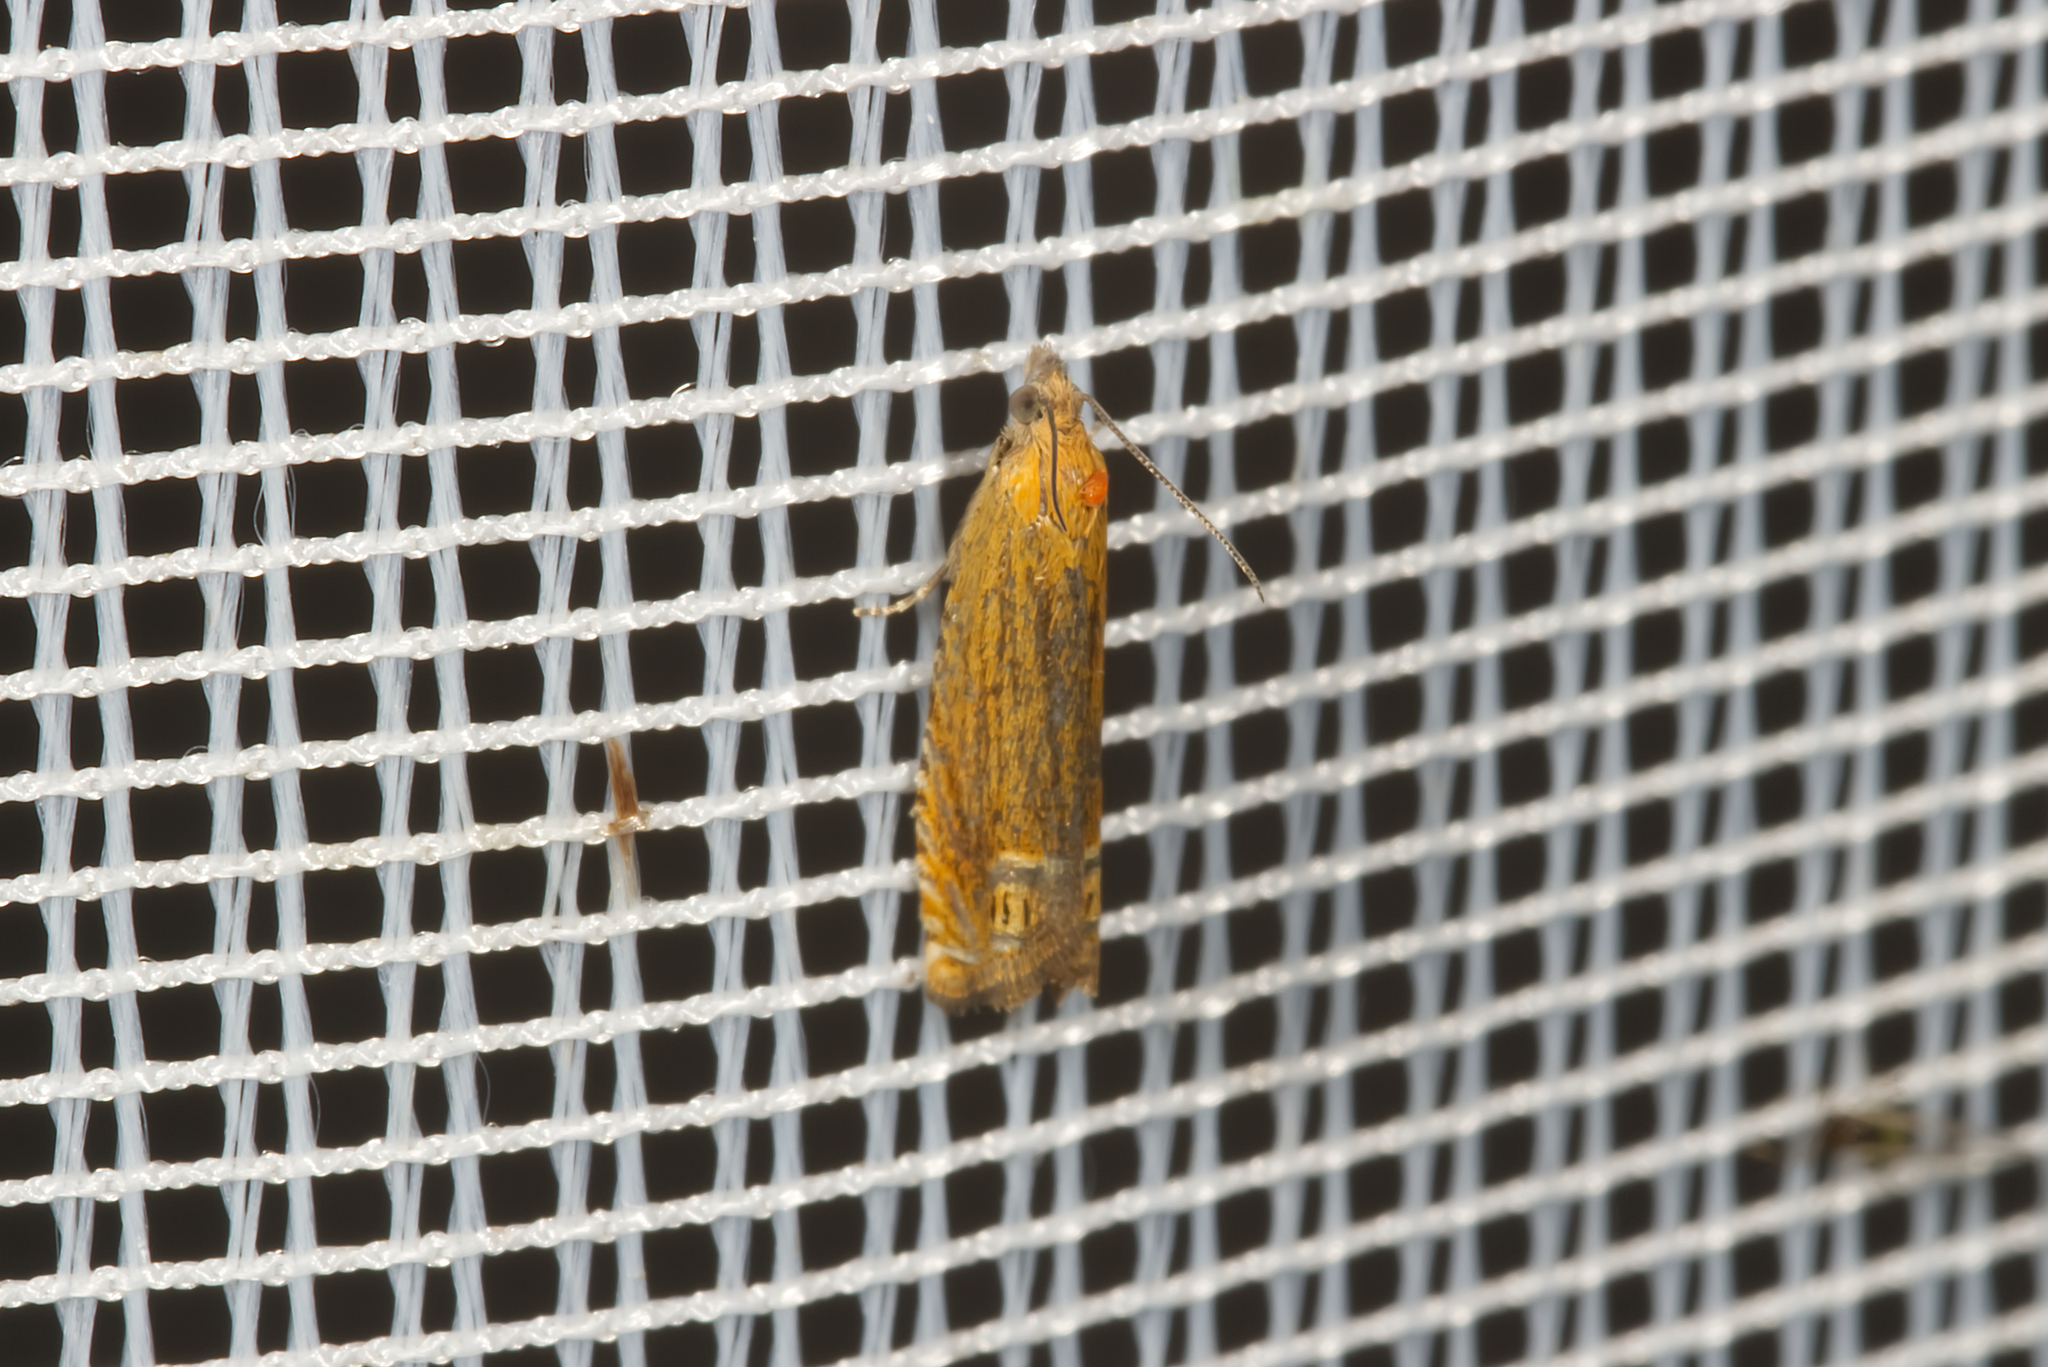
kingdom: Animalia
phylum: Arthropoda
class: Insecta
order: Lepidoptera
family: Tortricidae
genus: Lathronympha
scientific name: Lathronympha strigana
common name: Red piercer
